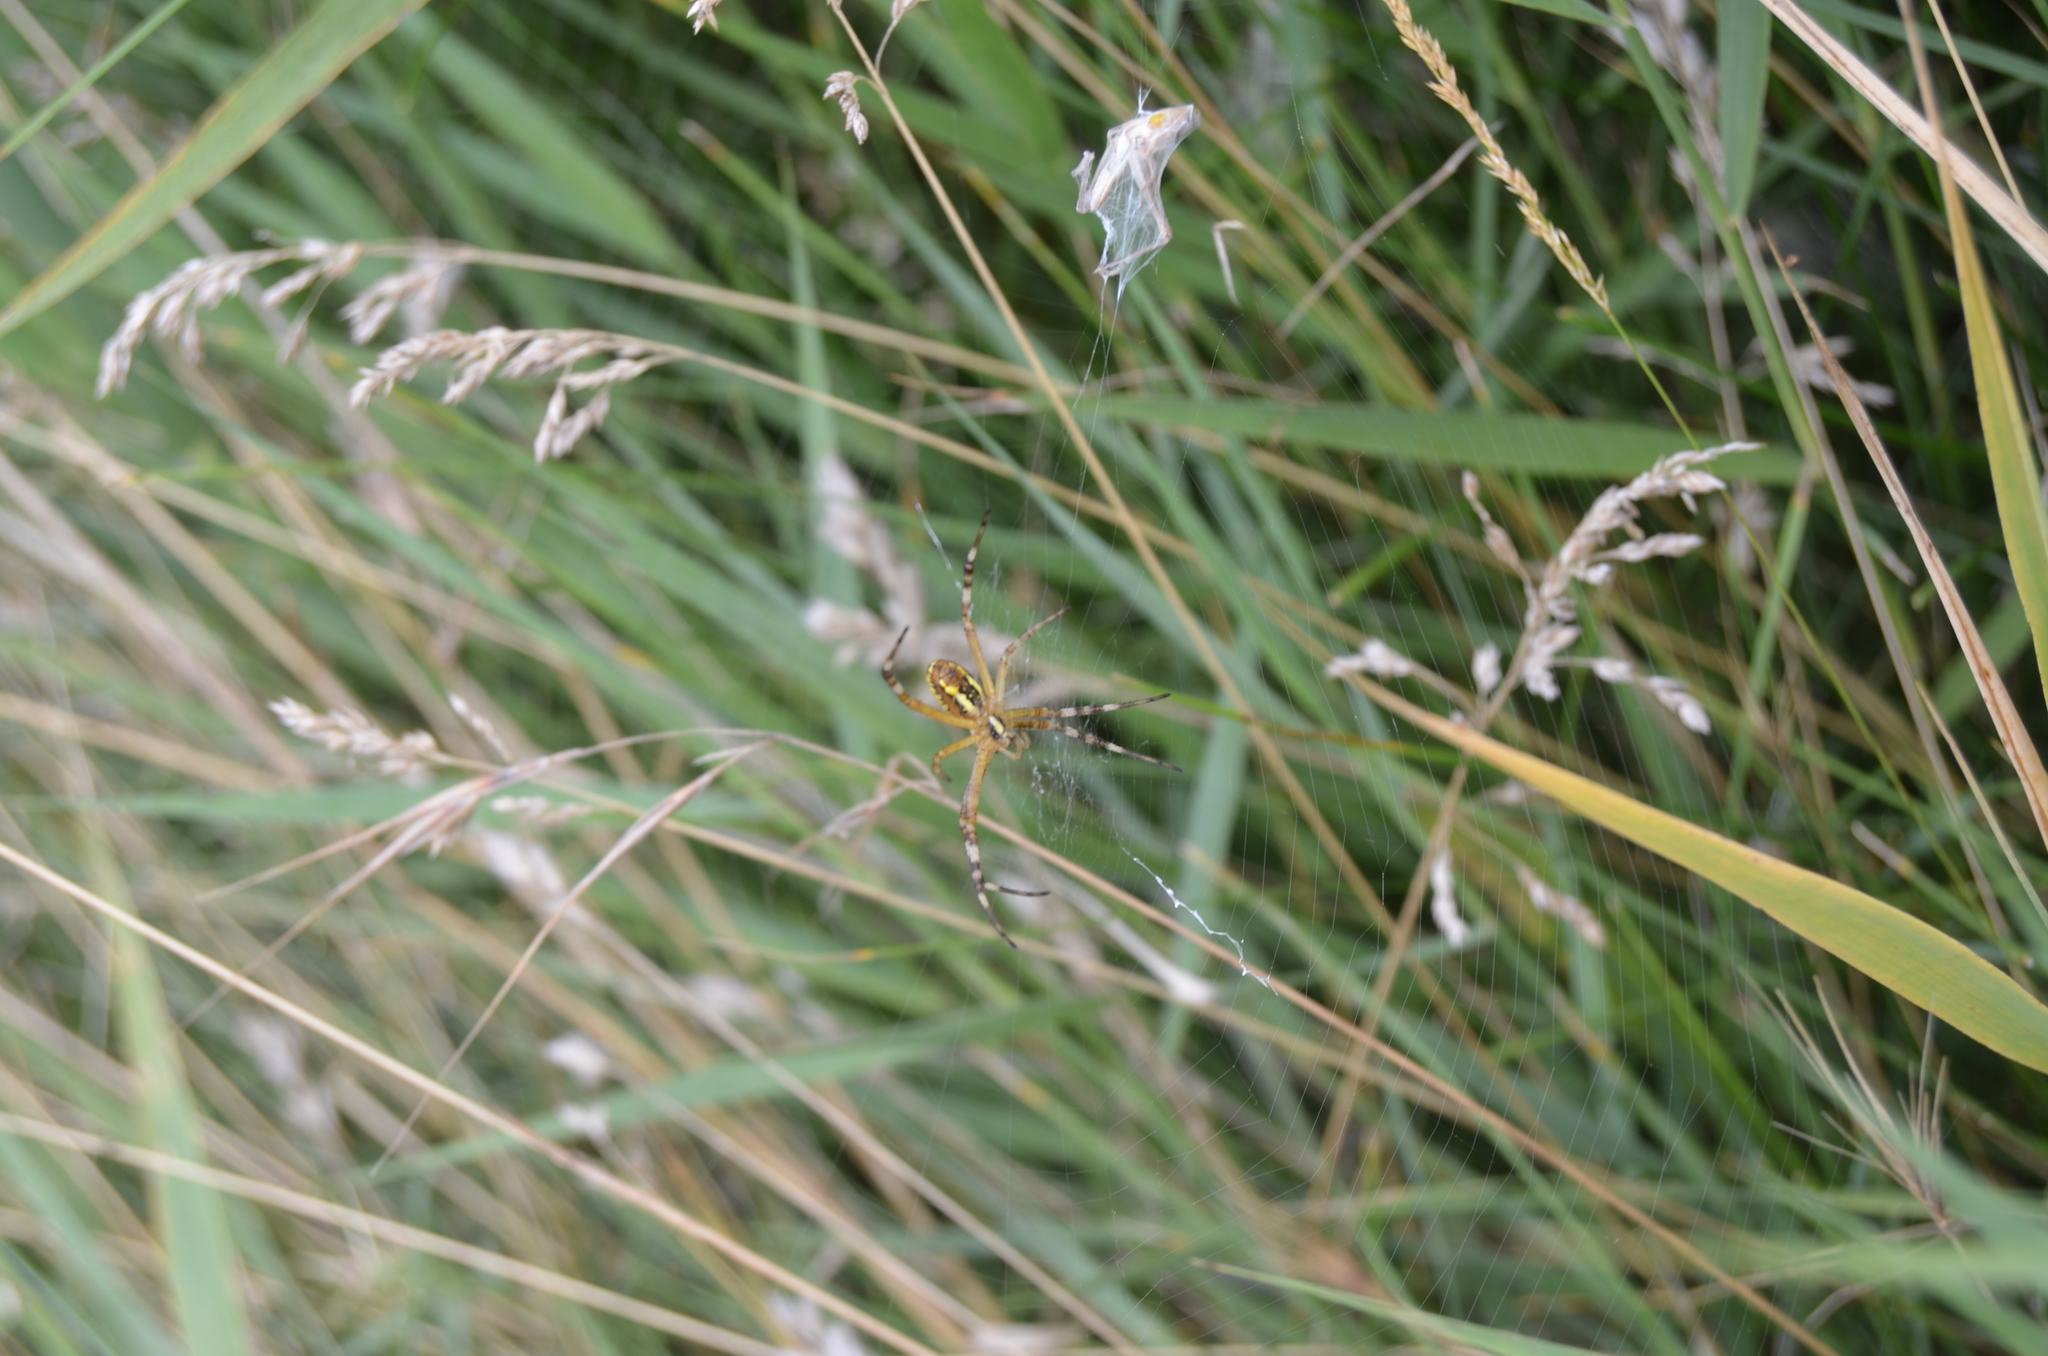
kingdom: Animalia
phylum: Arthropoda
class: Arachnida
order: Araneae
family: Araneidae
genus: Argiope
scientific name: Argiope bruennichi
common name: Wasp spider
